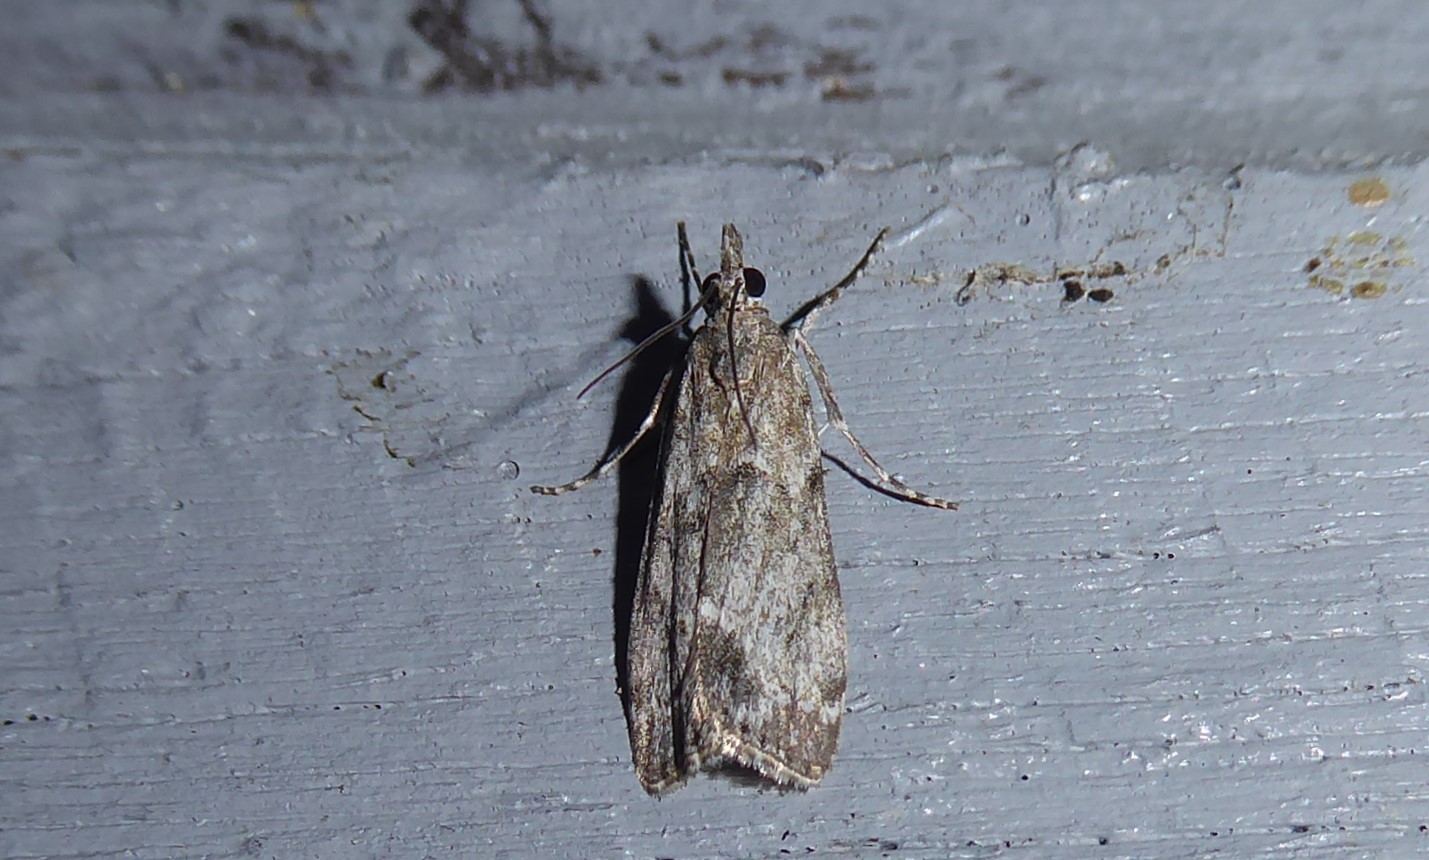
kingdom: Animalia
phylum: Arthropoda
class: Insecta
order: Lepidoptera
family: Crambidae
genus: Eudonia
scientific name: Eudonia rakaiensis
